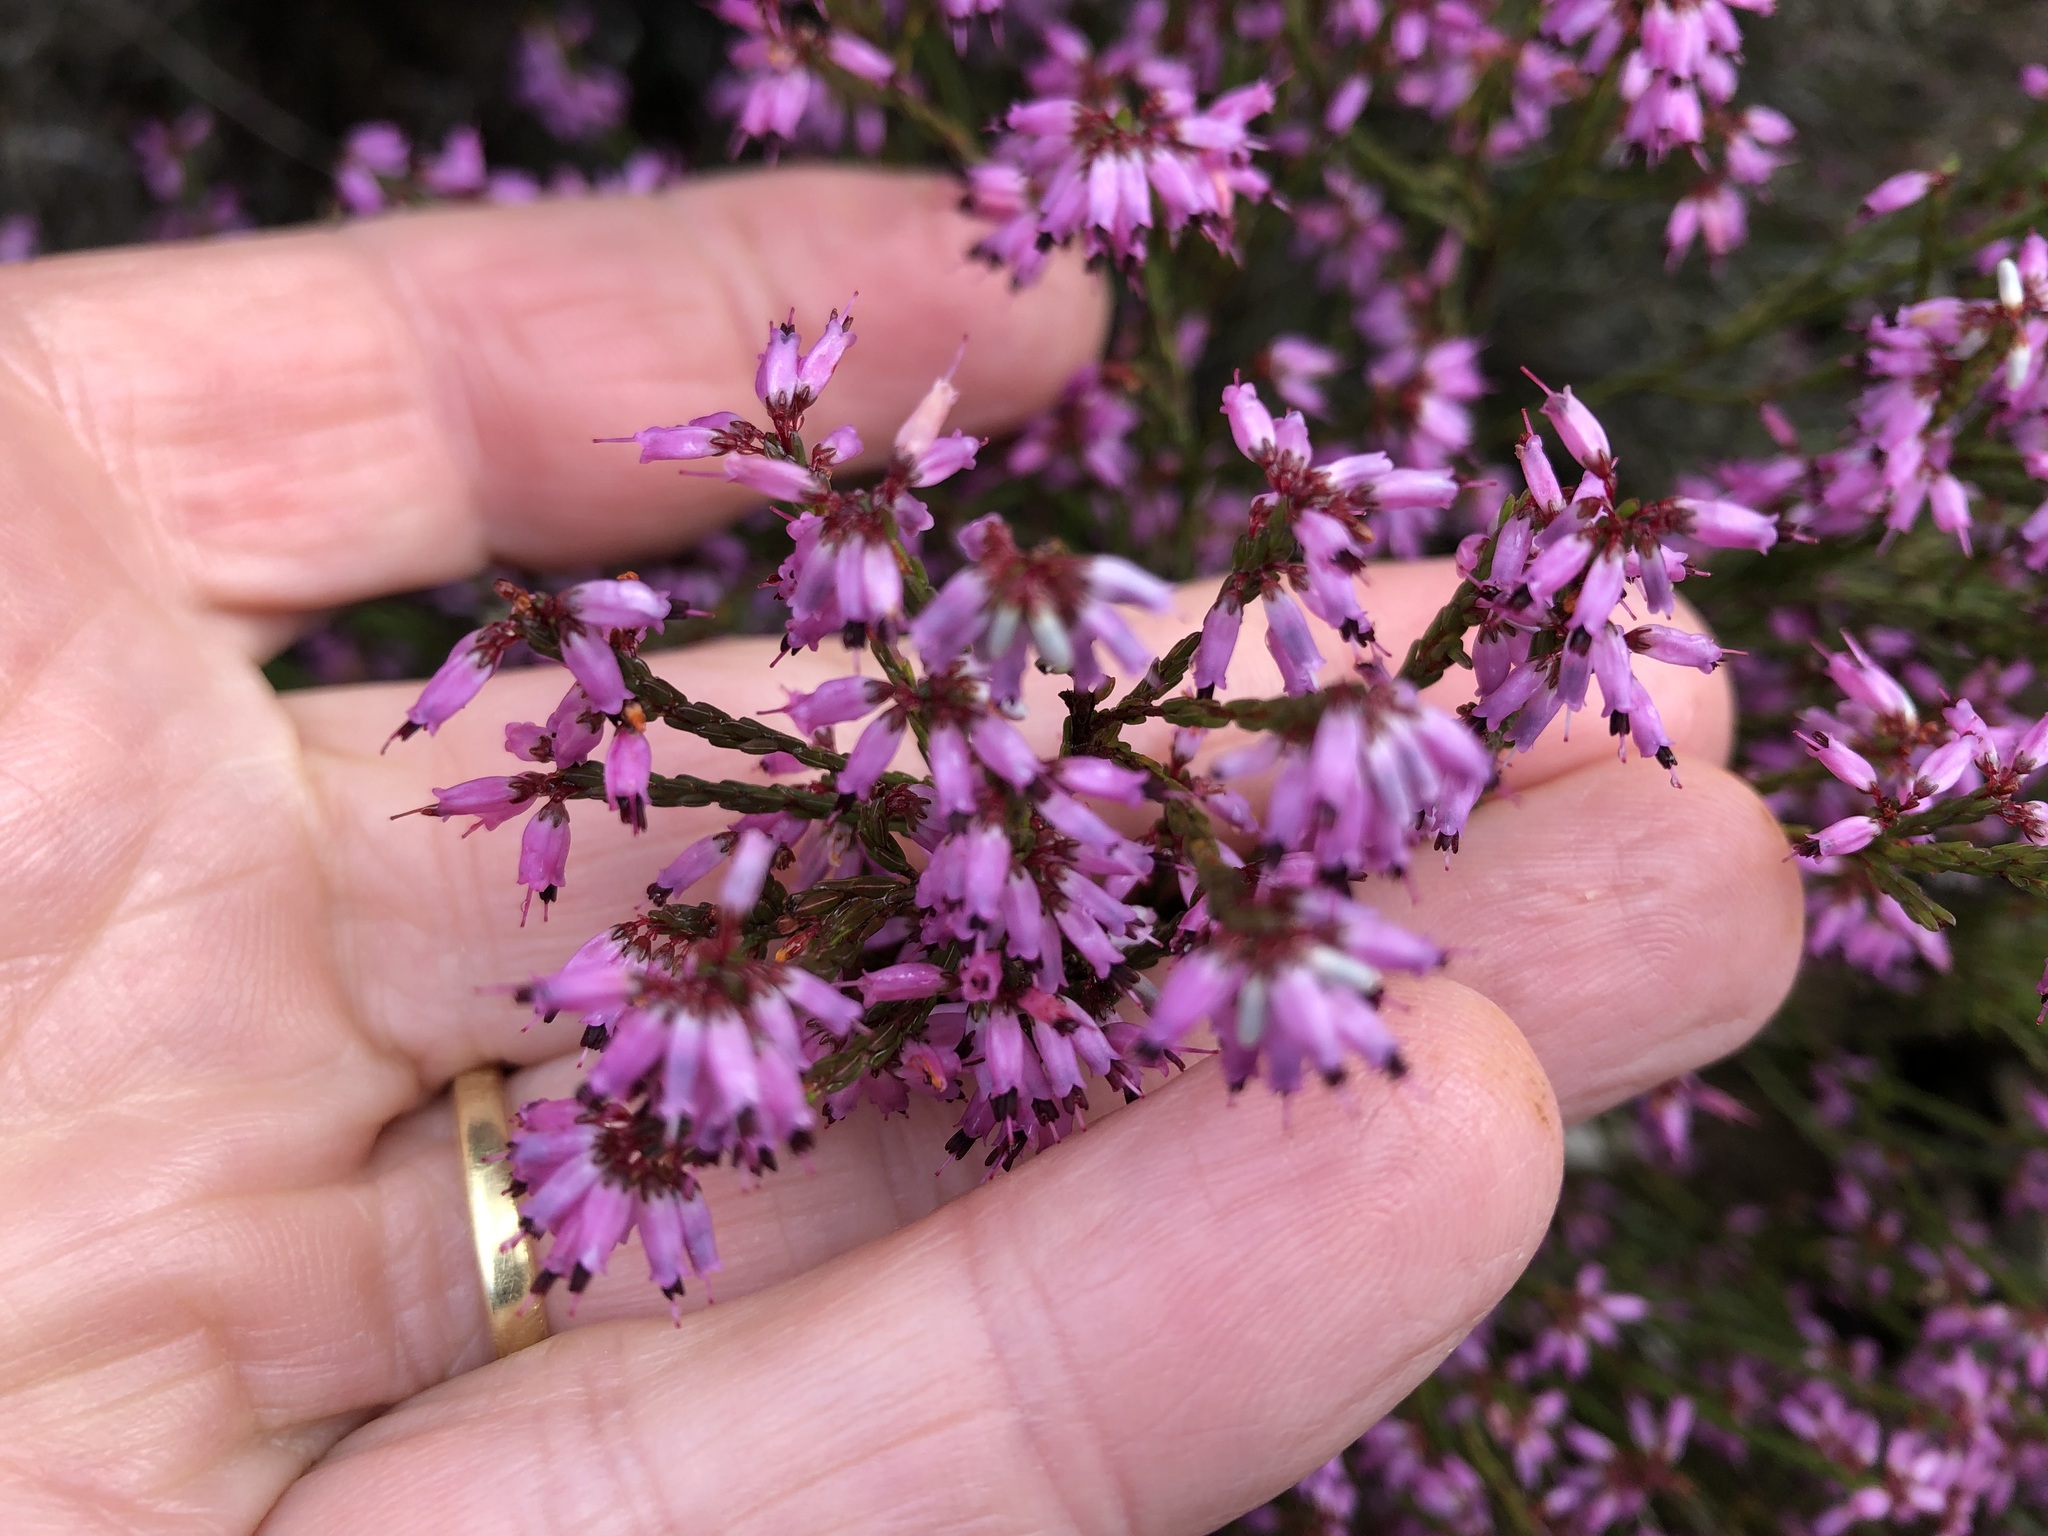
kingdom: Plantae
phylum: Tracheophyta
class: Magnoliopsida
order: Ericales
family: Ericaceae
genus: Erica
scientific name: Erica equisetifolia
